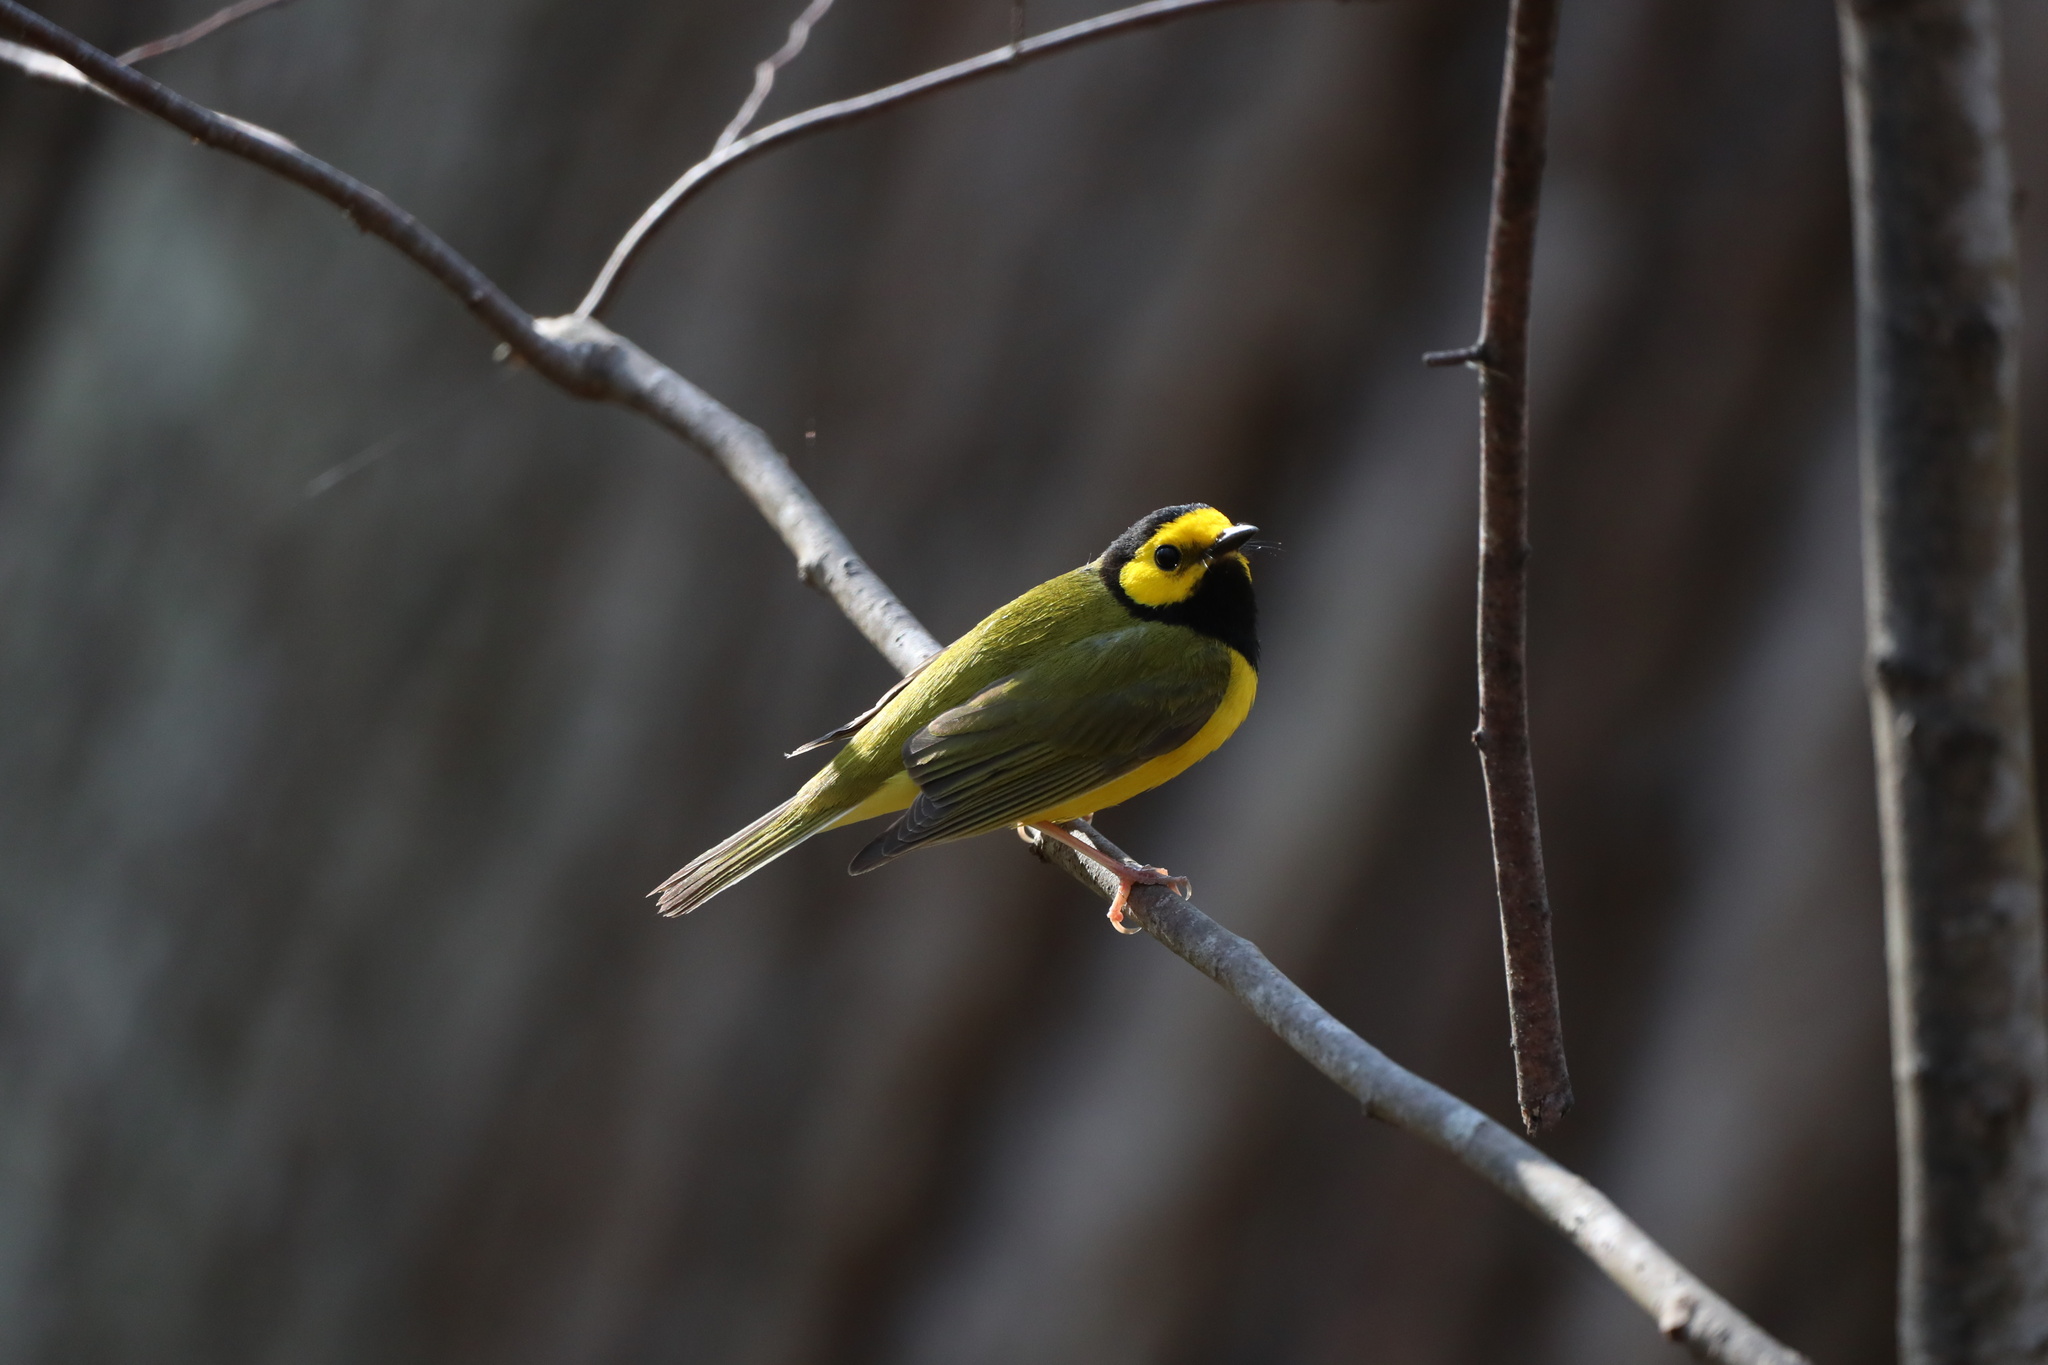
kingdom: Animalia
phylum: Chordata
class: Aves
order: Passeriformes
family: Parulidae
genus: Setophaga
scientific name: Setophaga citrina
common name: Hooded warbler
